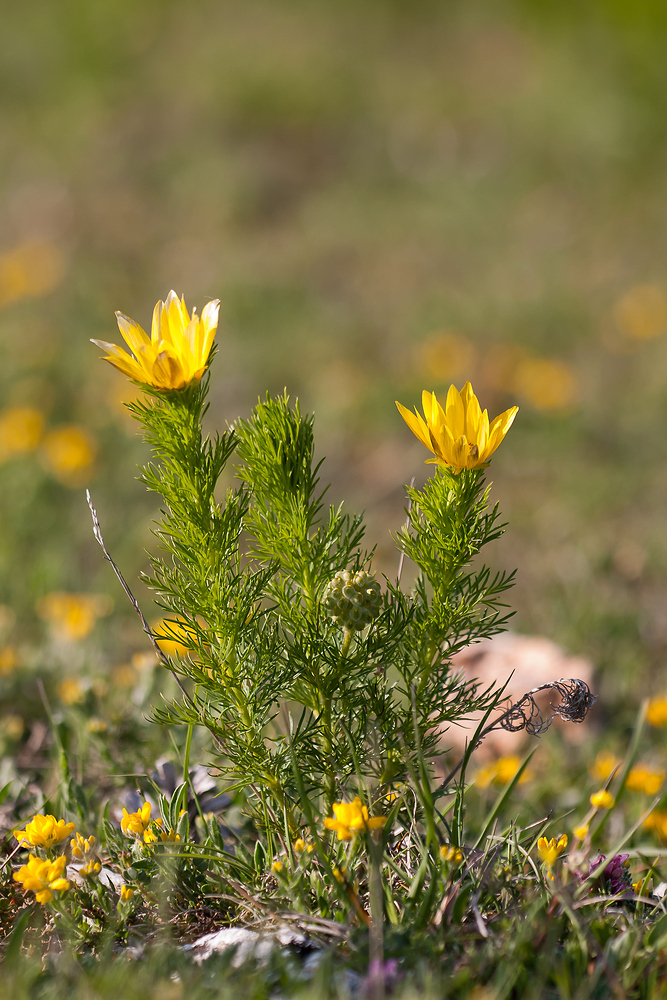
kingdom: Plantae
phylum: Tracheophyta
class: Magnoliopsida
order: Ranunculales
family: Ranunculaceae
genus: Adonis
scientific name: Adonis vernalis
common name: Yellow pheasants-eye
